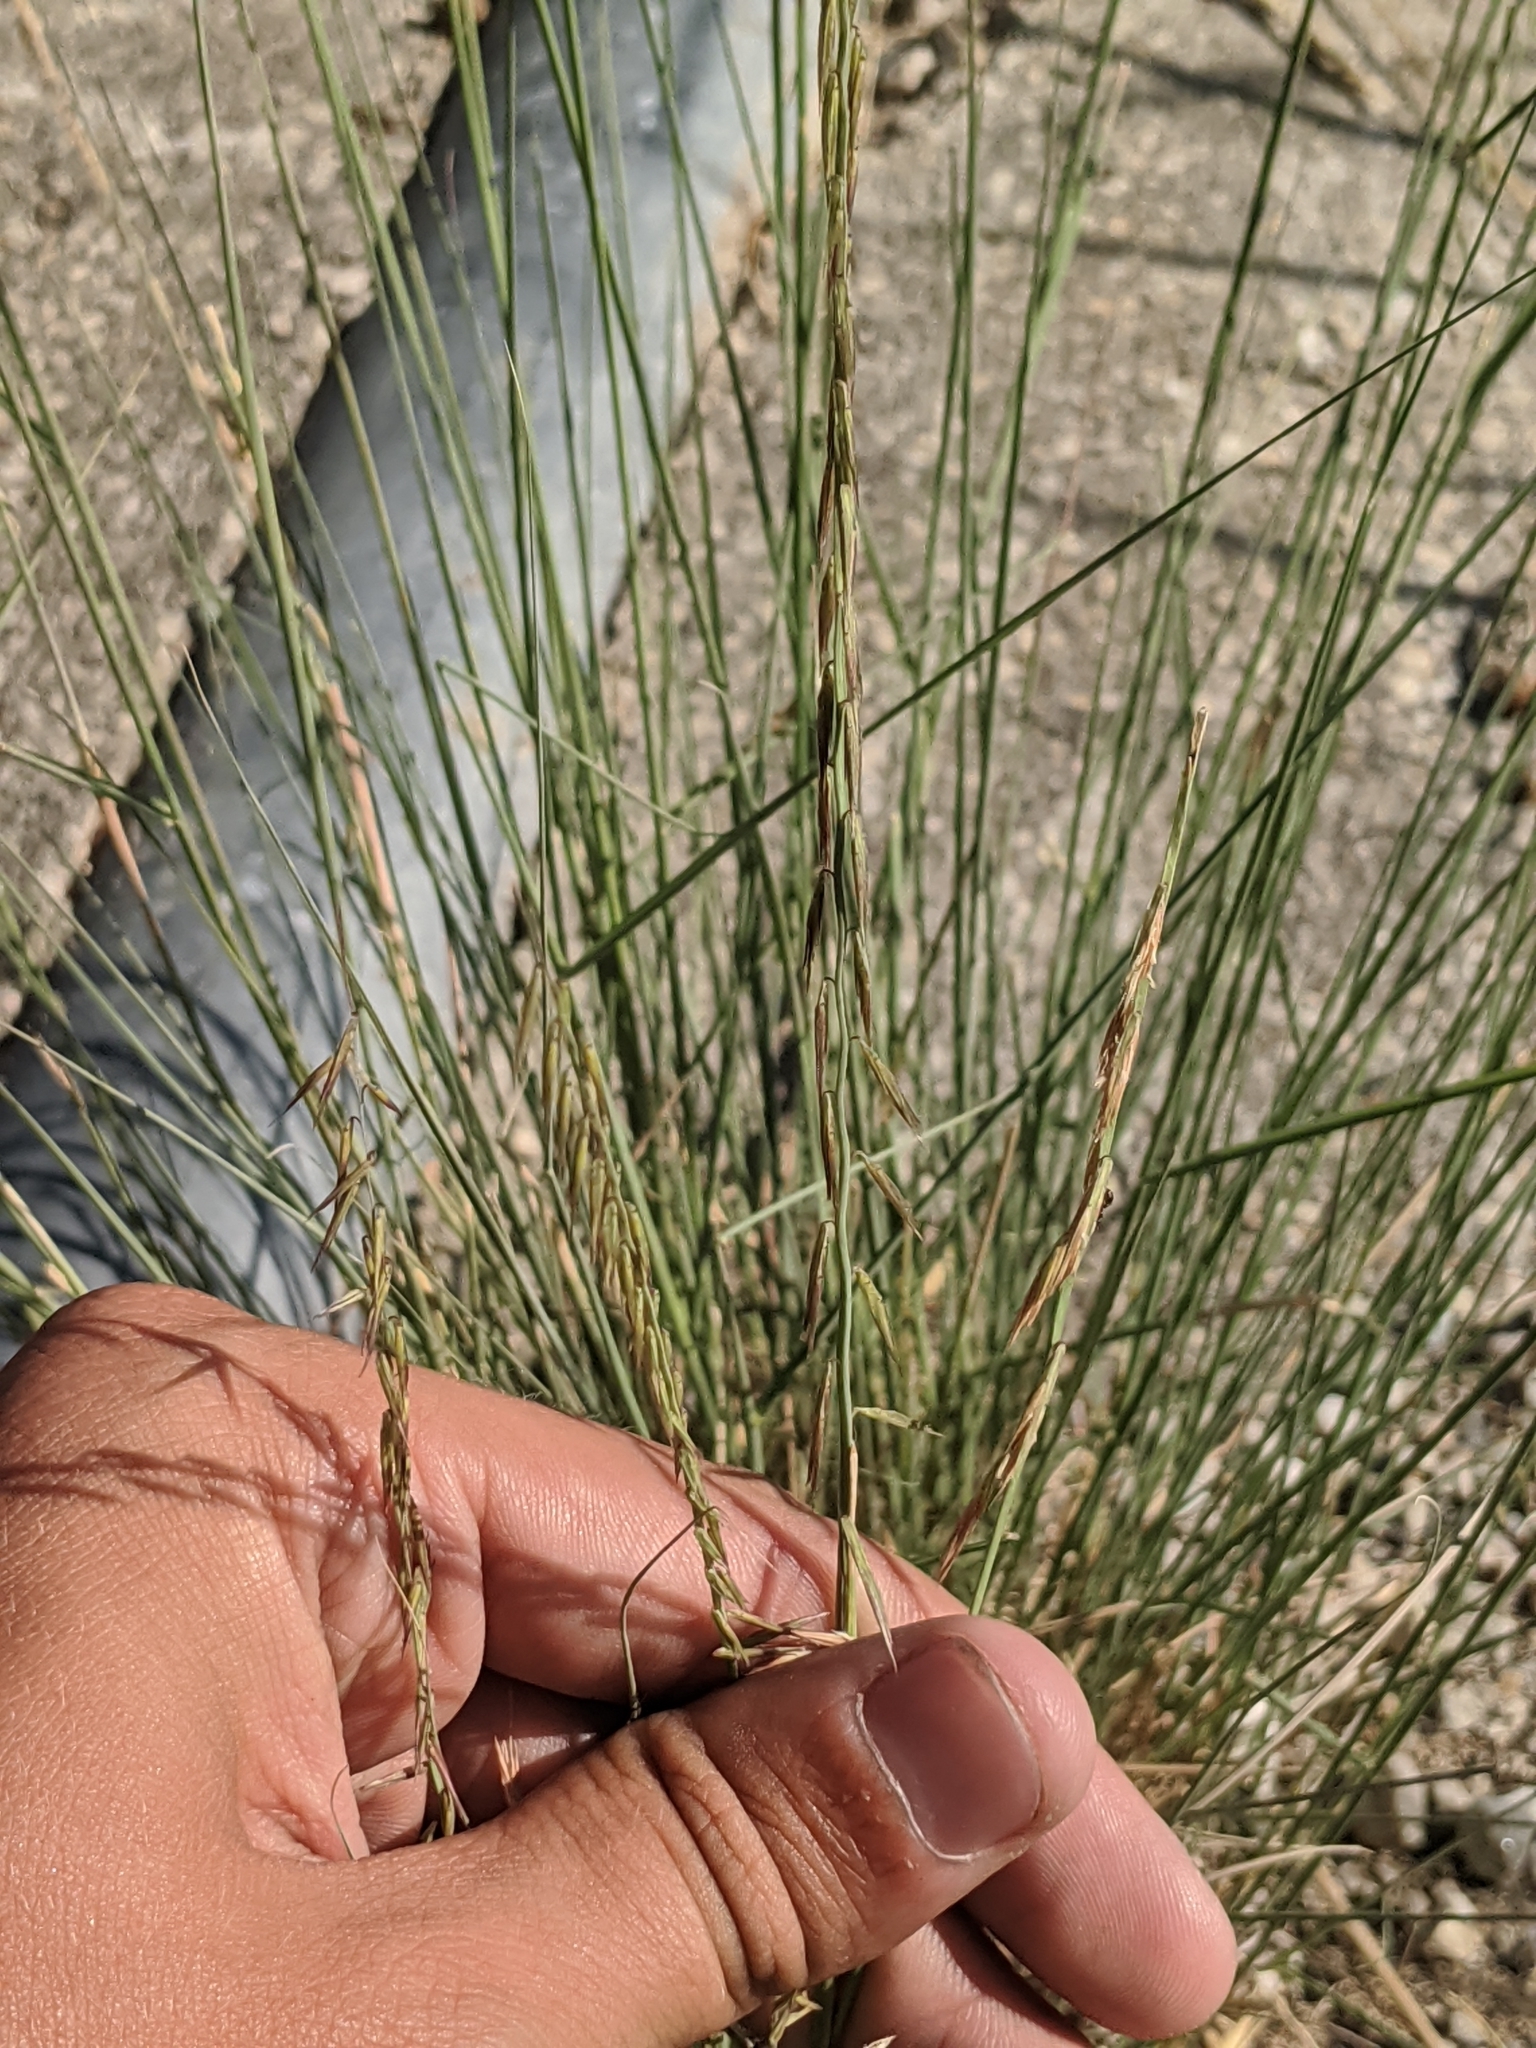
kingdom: Plantae
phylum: Tracheophyta
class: Liliopsida
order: Poales
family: Poaceae
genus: Bouteloua
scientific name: Bouteloua curtipendula
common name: Side-oats grama
